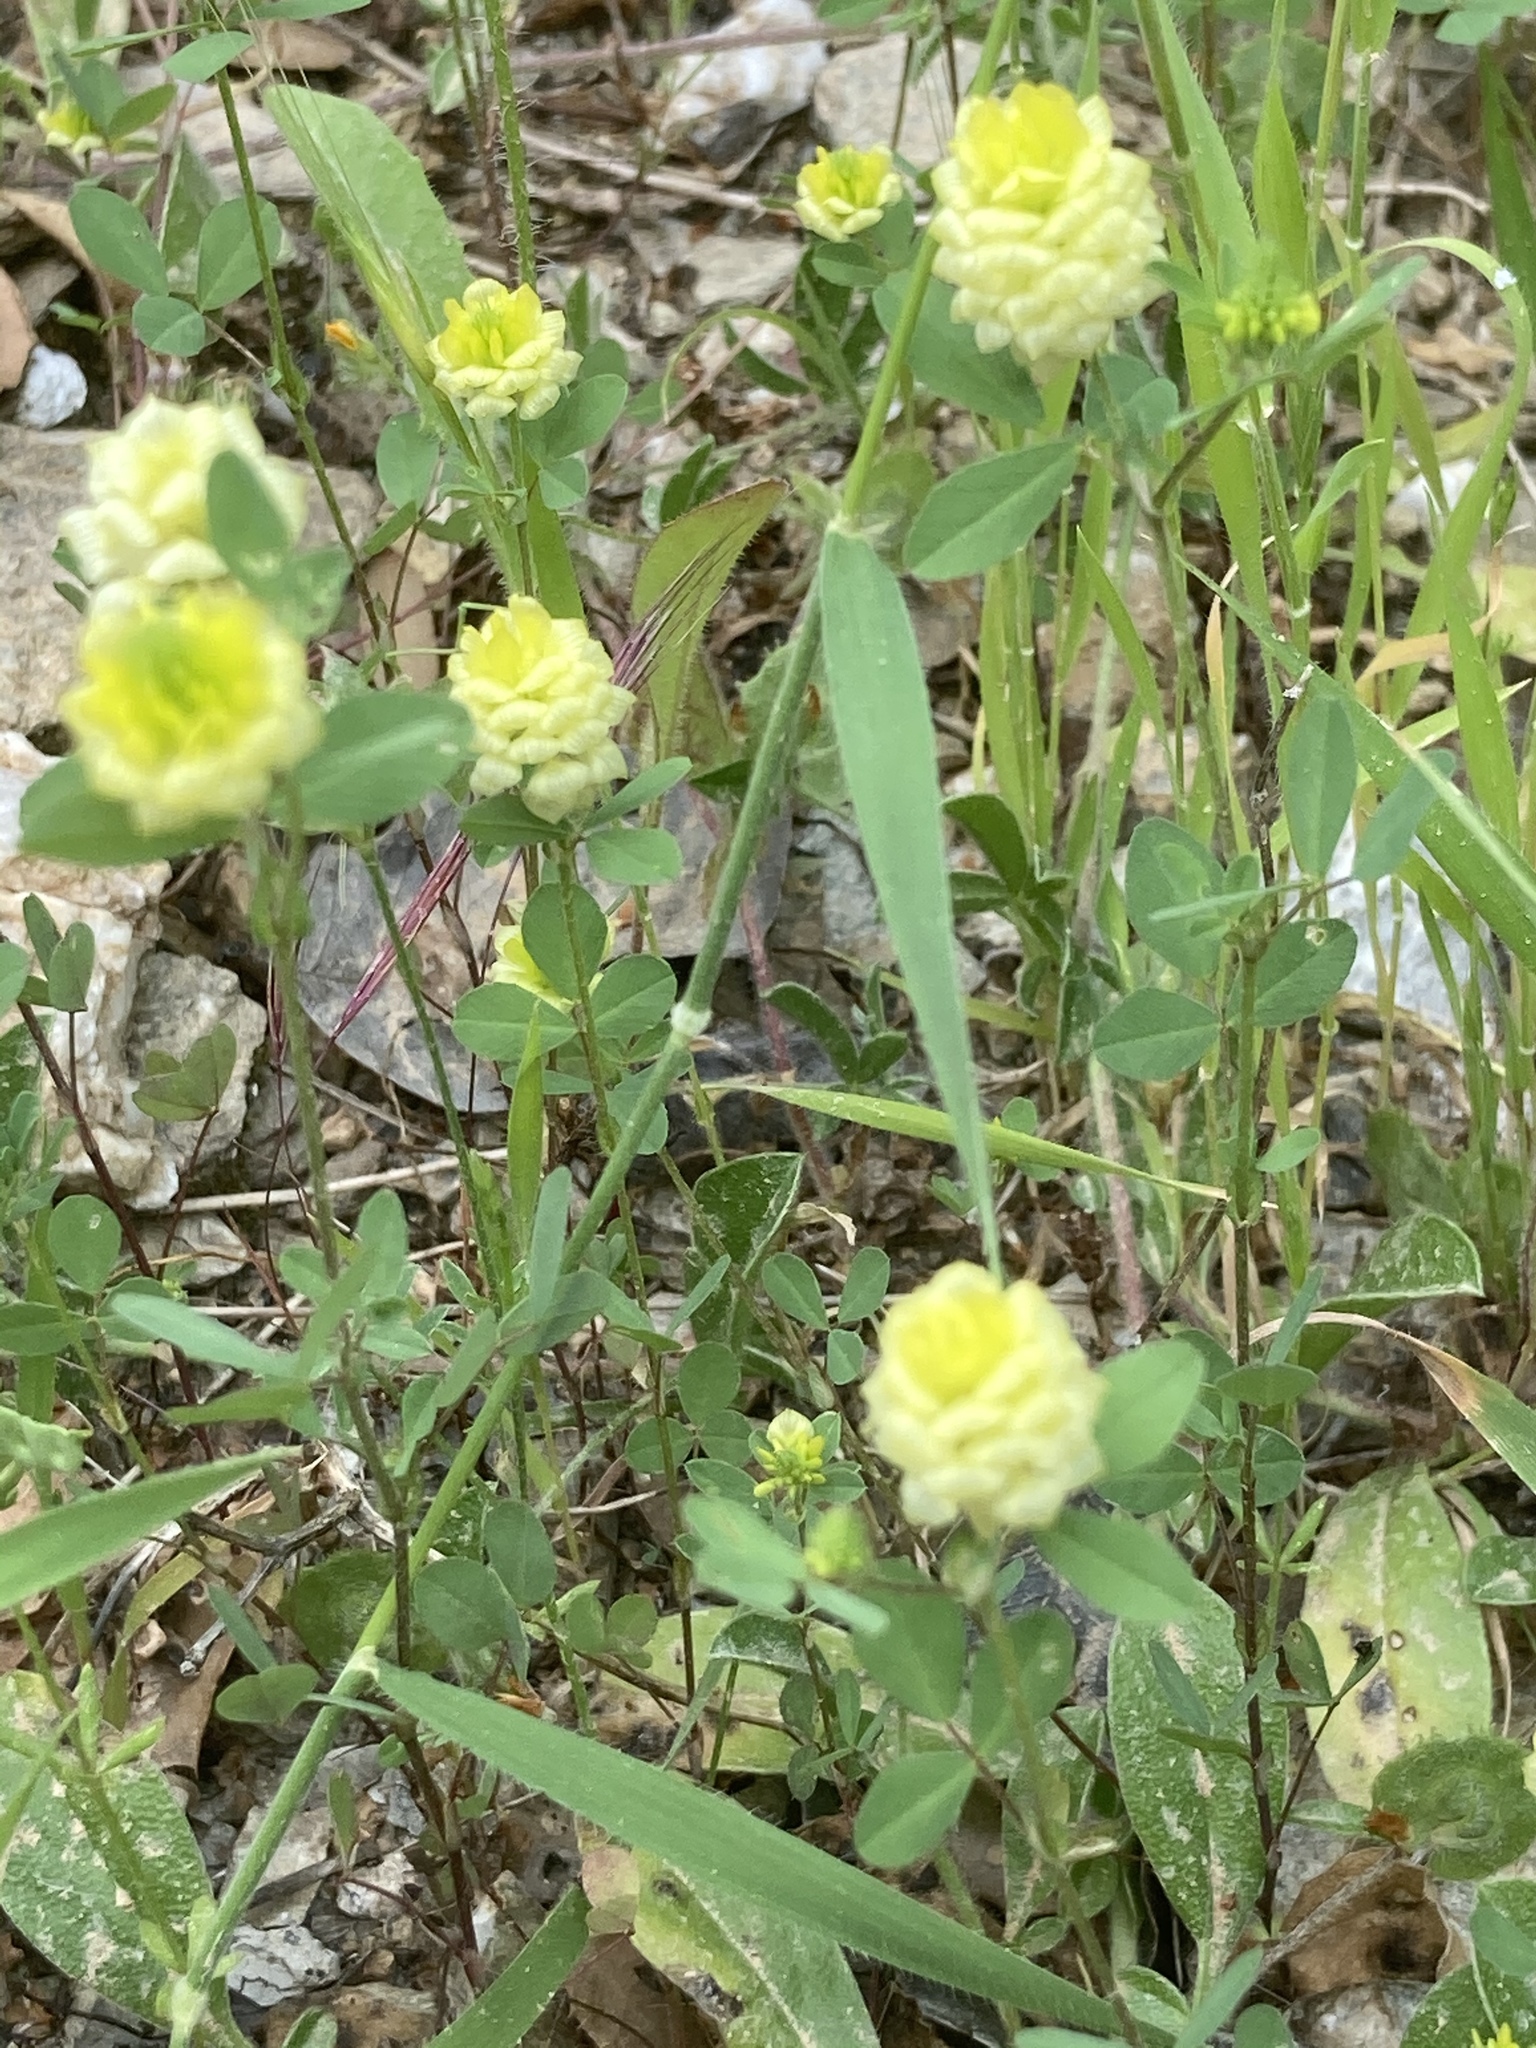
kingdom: Plantae
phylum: Tracheophyta
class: Magnoliopsida
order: Fabales
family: Fabaceae
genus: Trifolium
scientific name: Trifolium campestre
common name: Field clover
